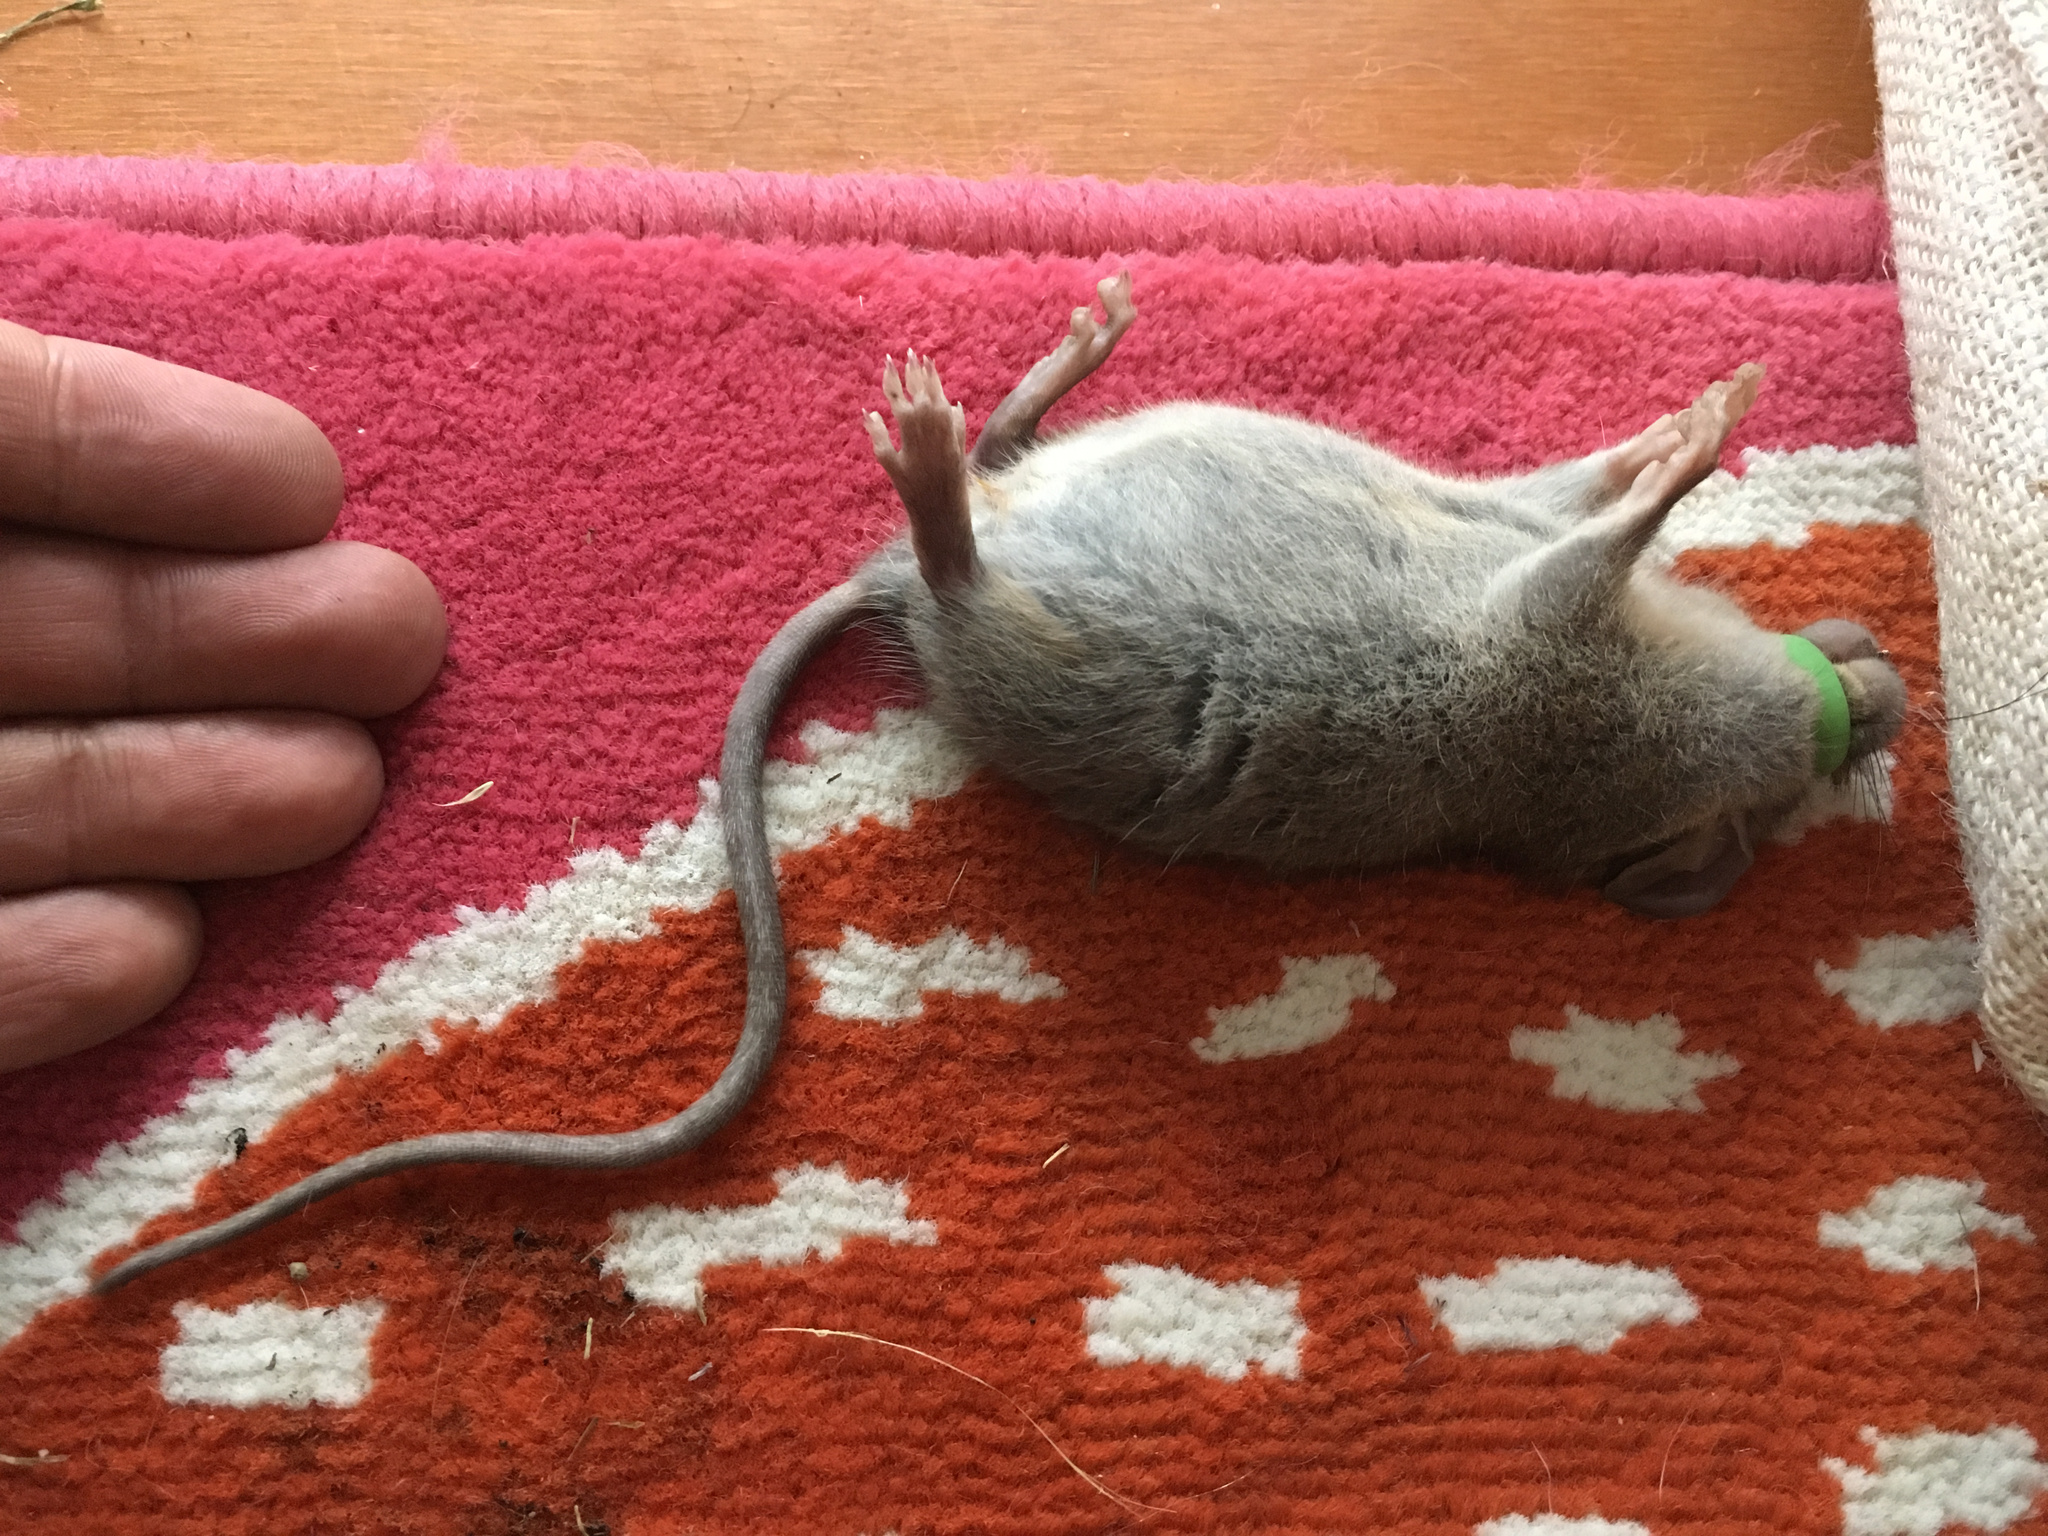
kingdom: Animalia
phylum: Chordata
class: Mammalia
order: Rodentia
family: Muridae
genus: Rattus
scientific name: Rattus rattus
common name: Black rat
